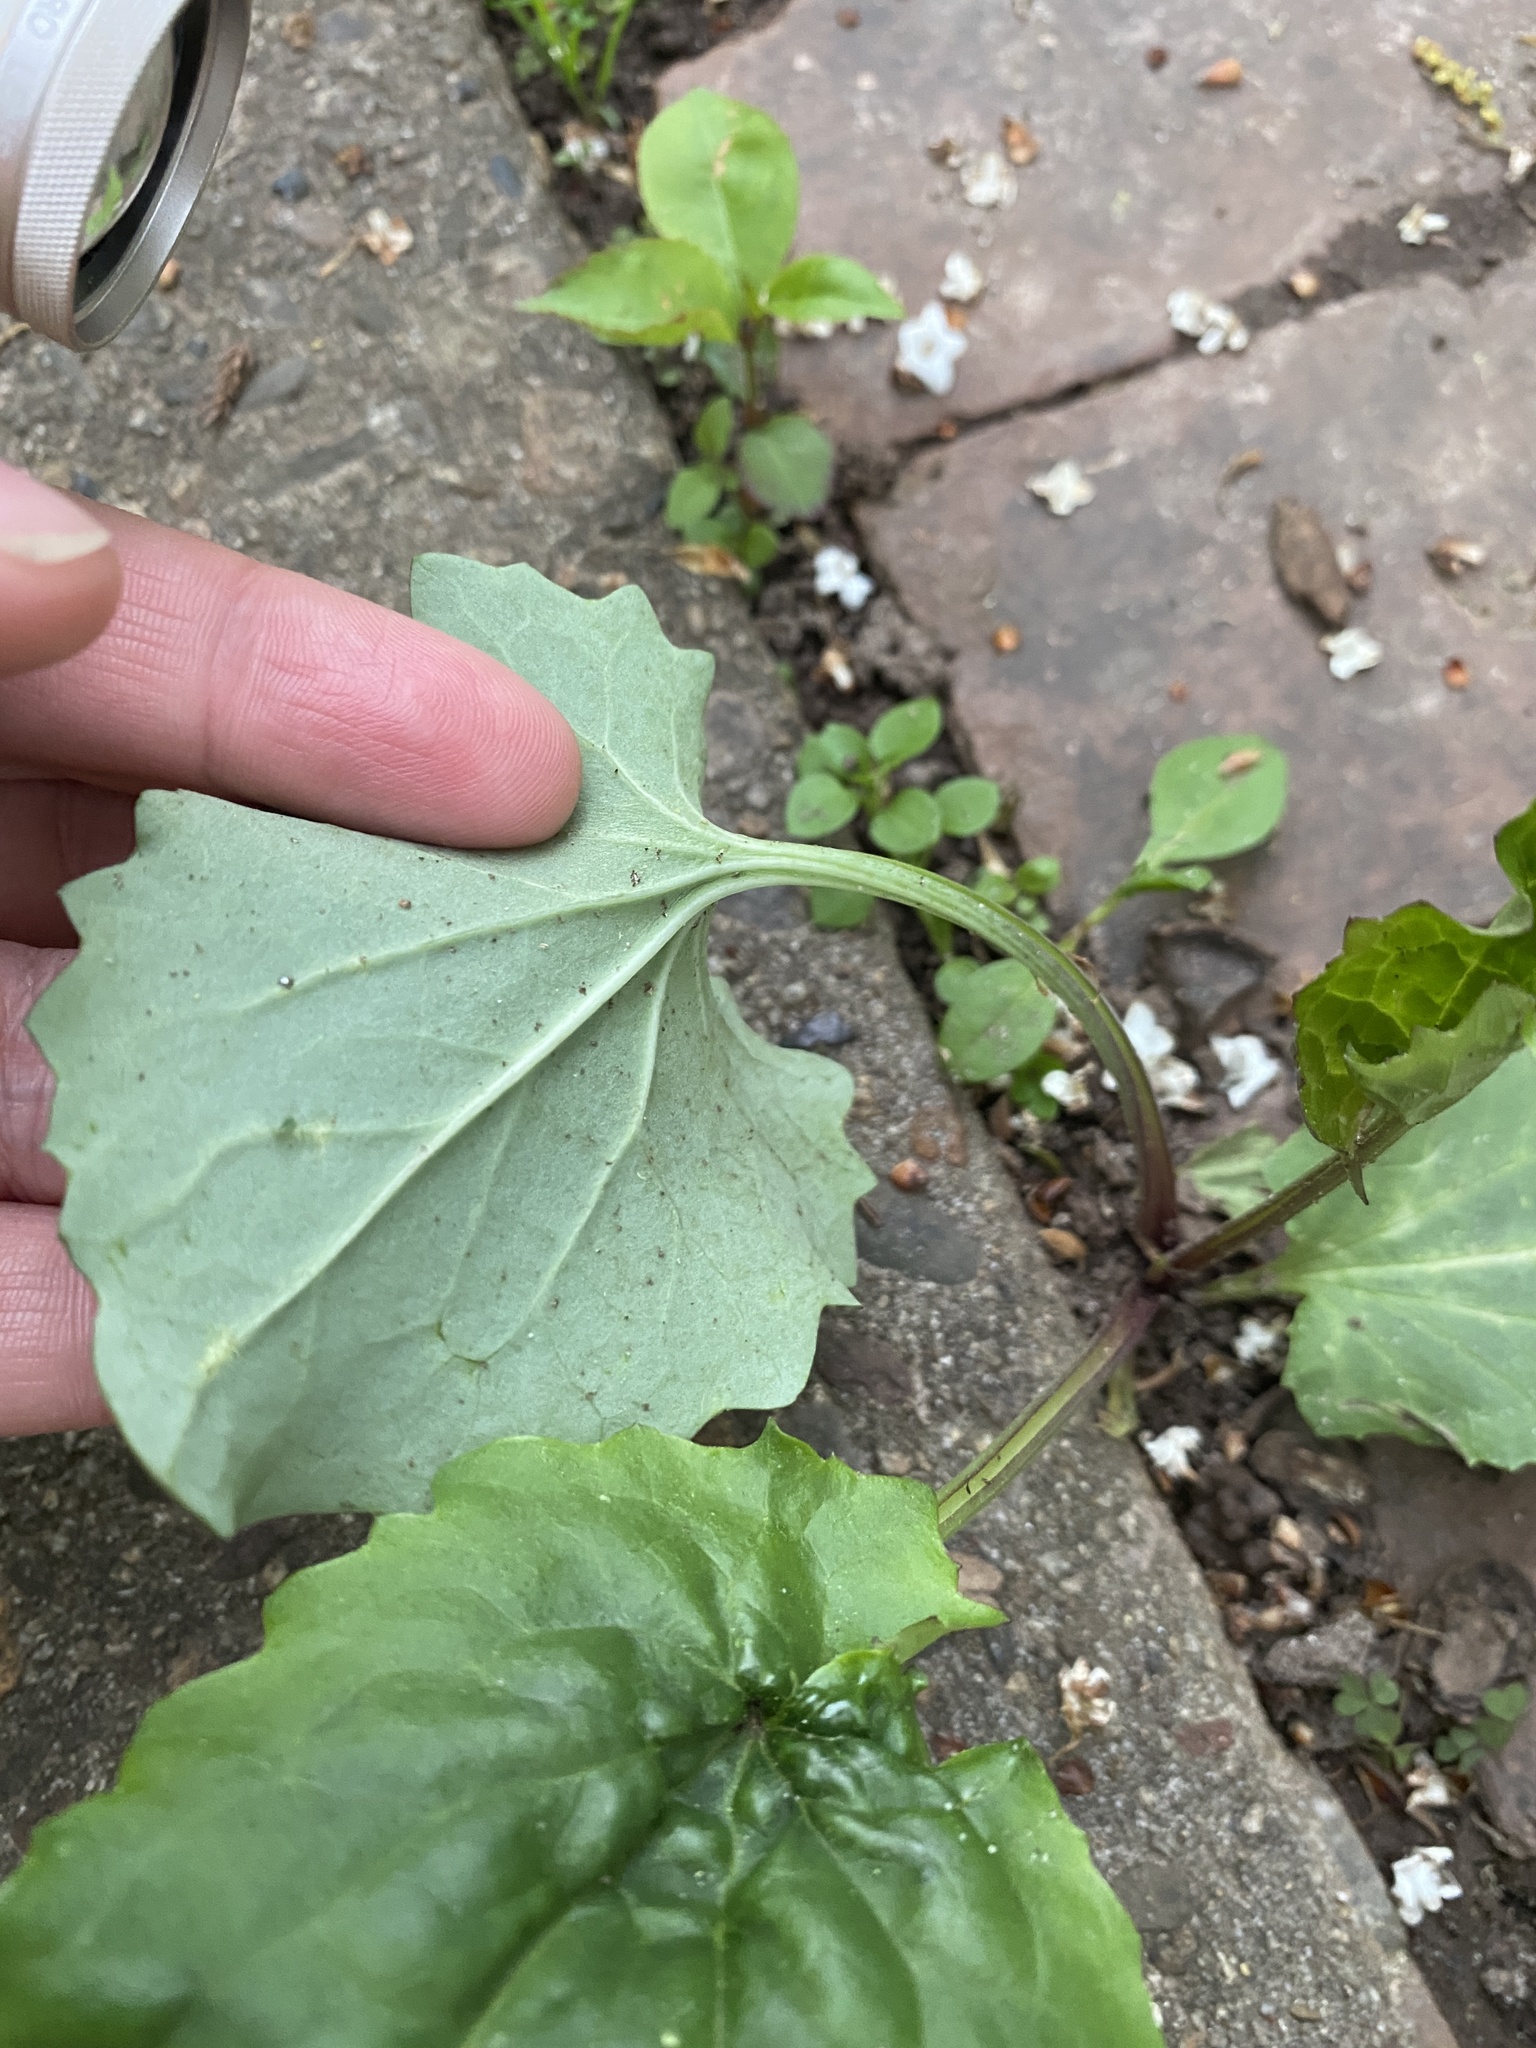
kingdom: Plantae
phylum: Tracheophyta
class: Magnoliopsida
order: Asterales
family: Asteraceae
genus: Arnoglossum
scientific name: Arnoglossum atriplicifolium
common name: Pale indian-plantain
